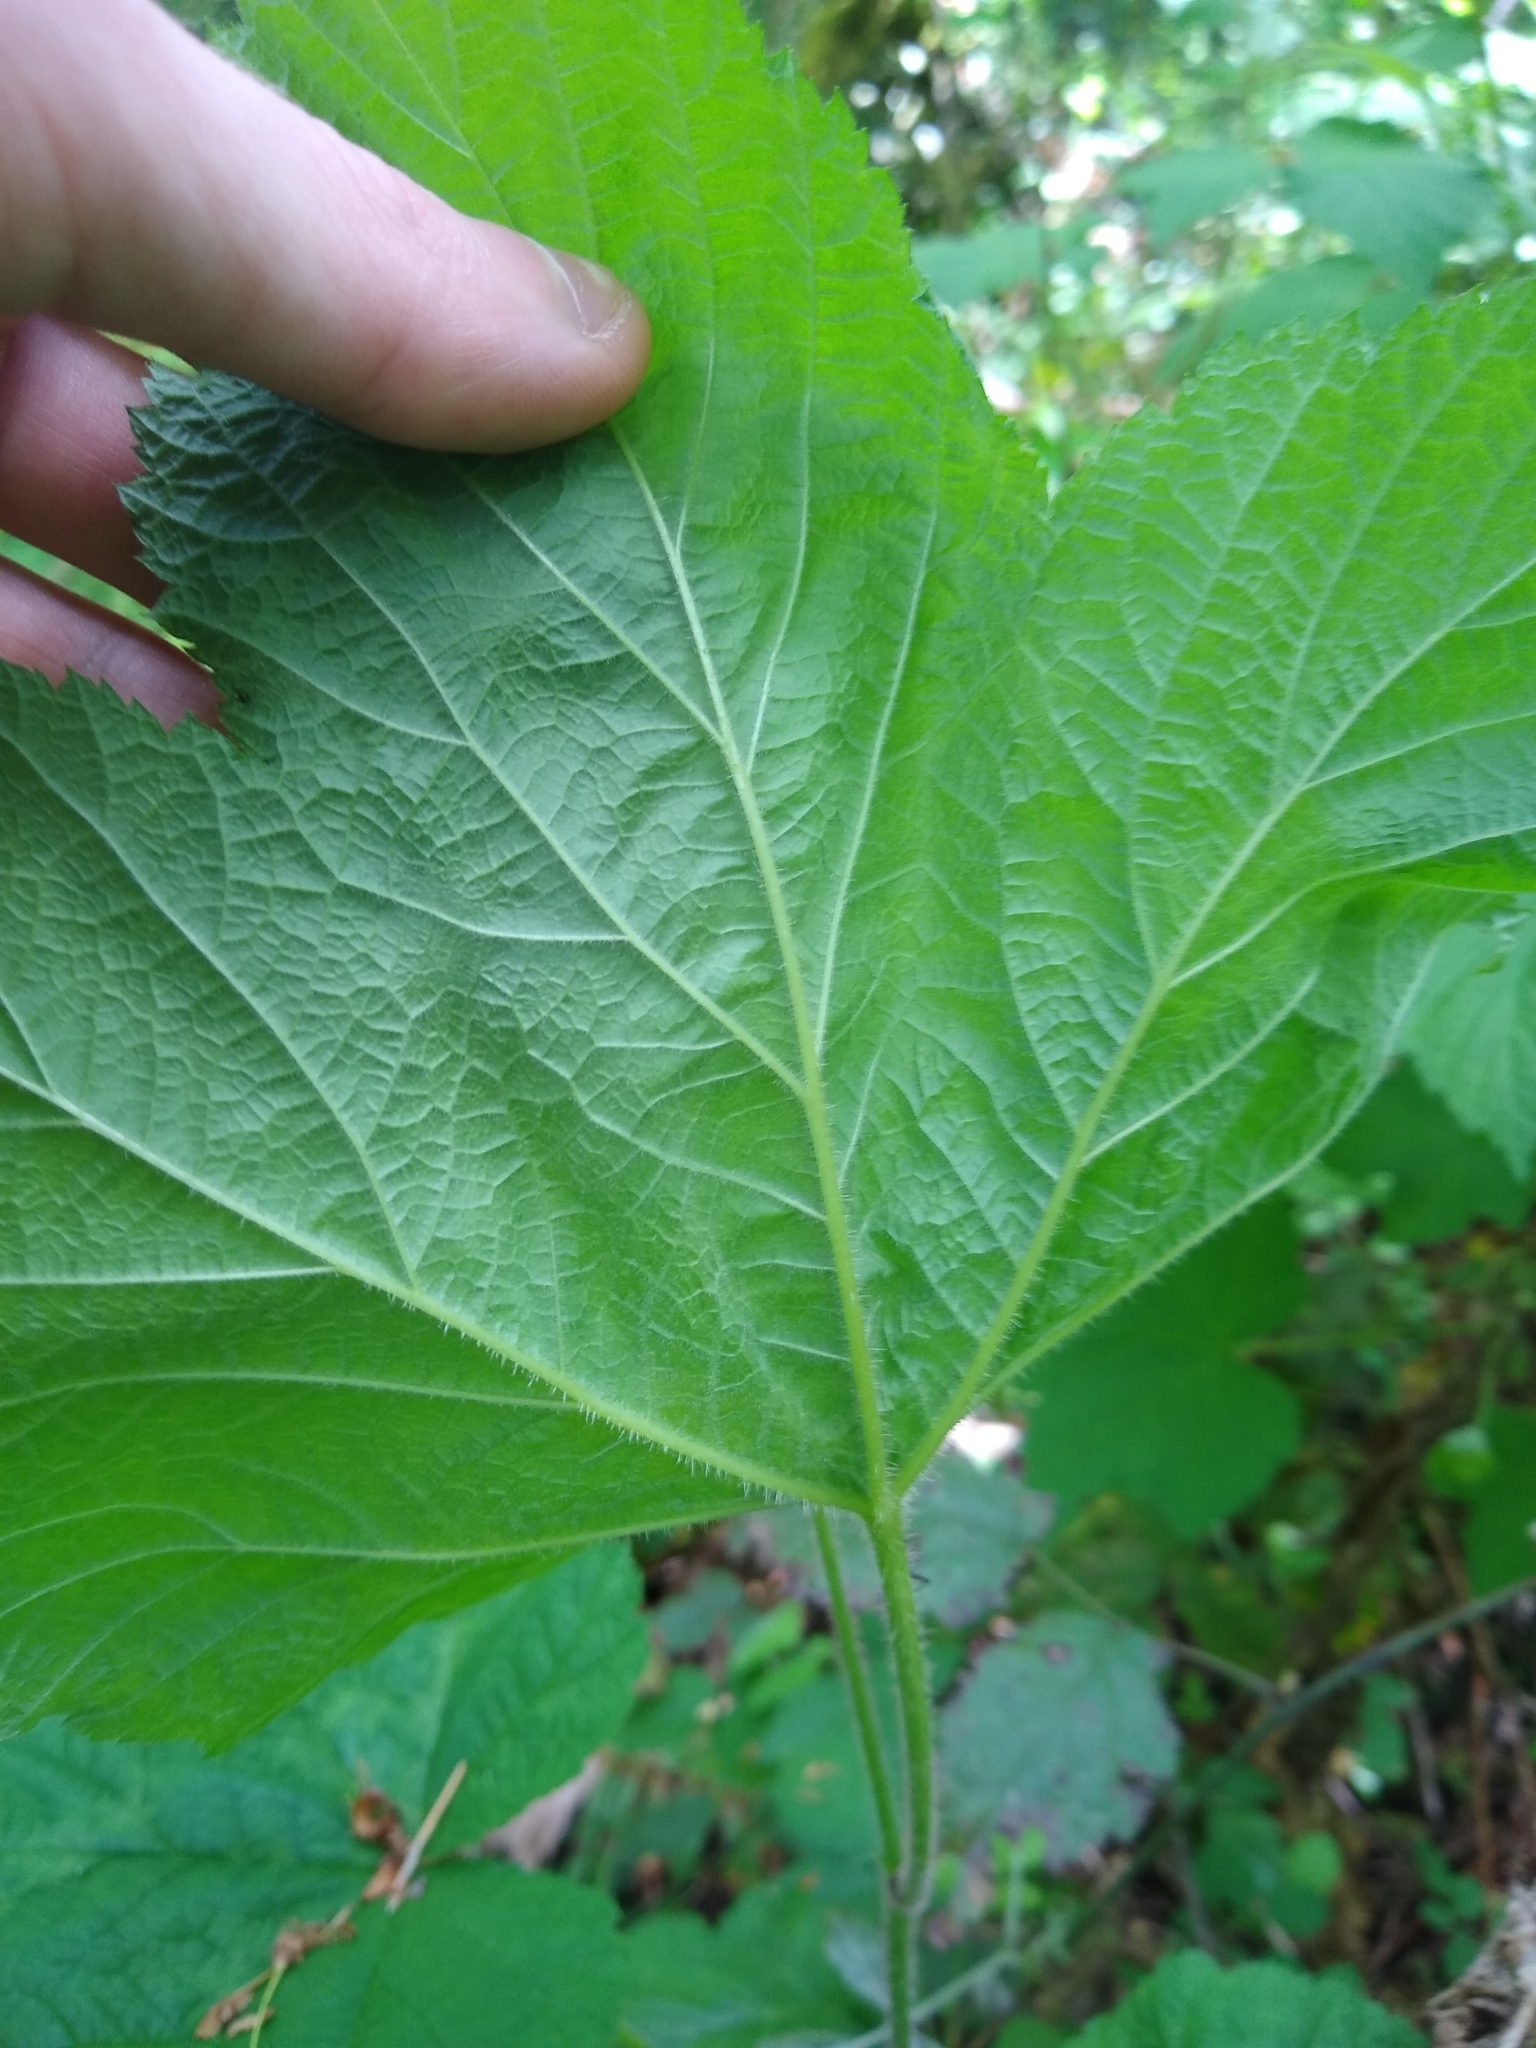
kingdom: Plantae
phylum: Tracheophyta
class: Magnoliopsida
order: Rosales
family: Rosaceae
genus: Rubus
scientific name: Rubus parviflorus
